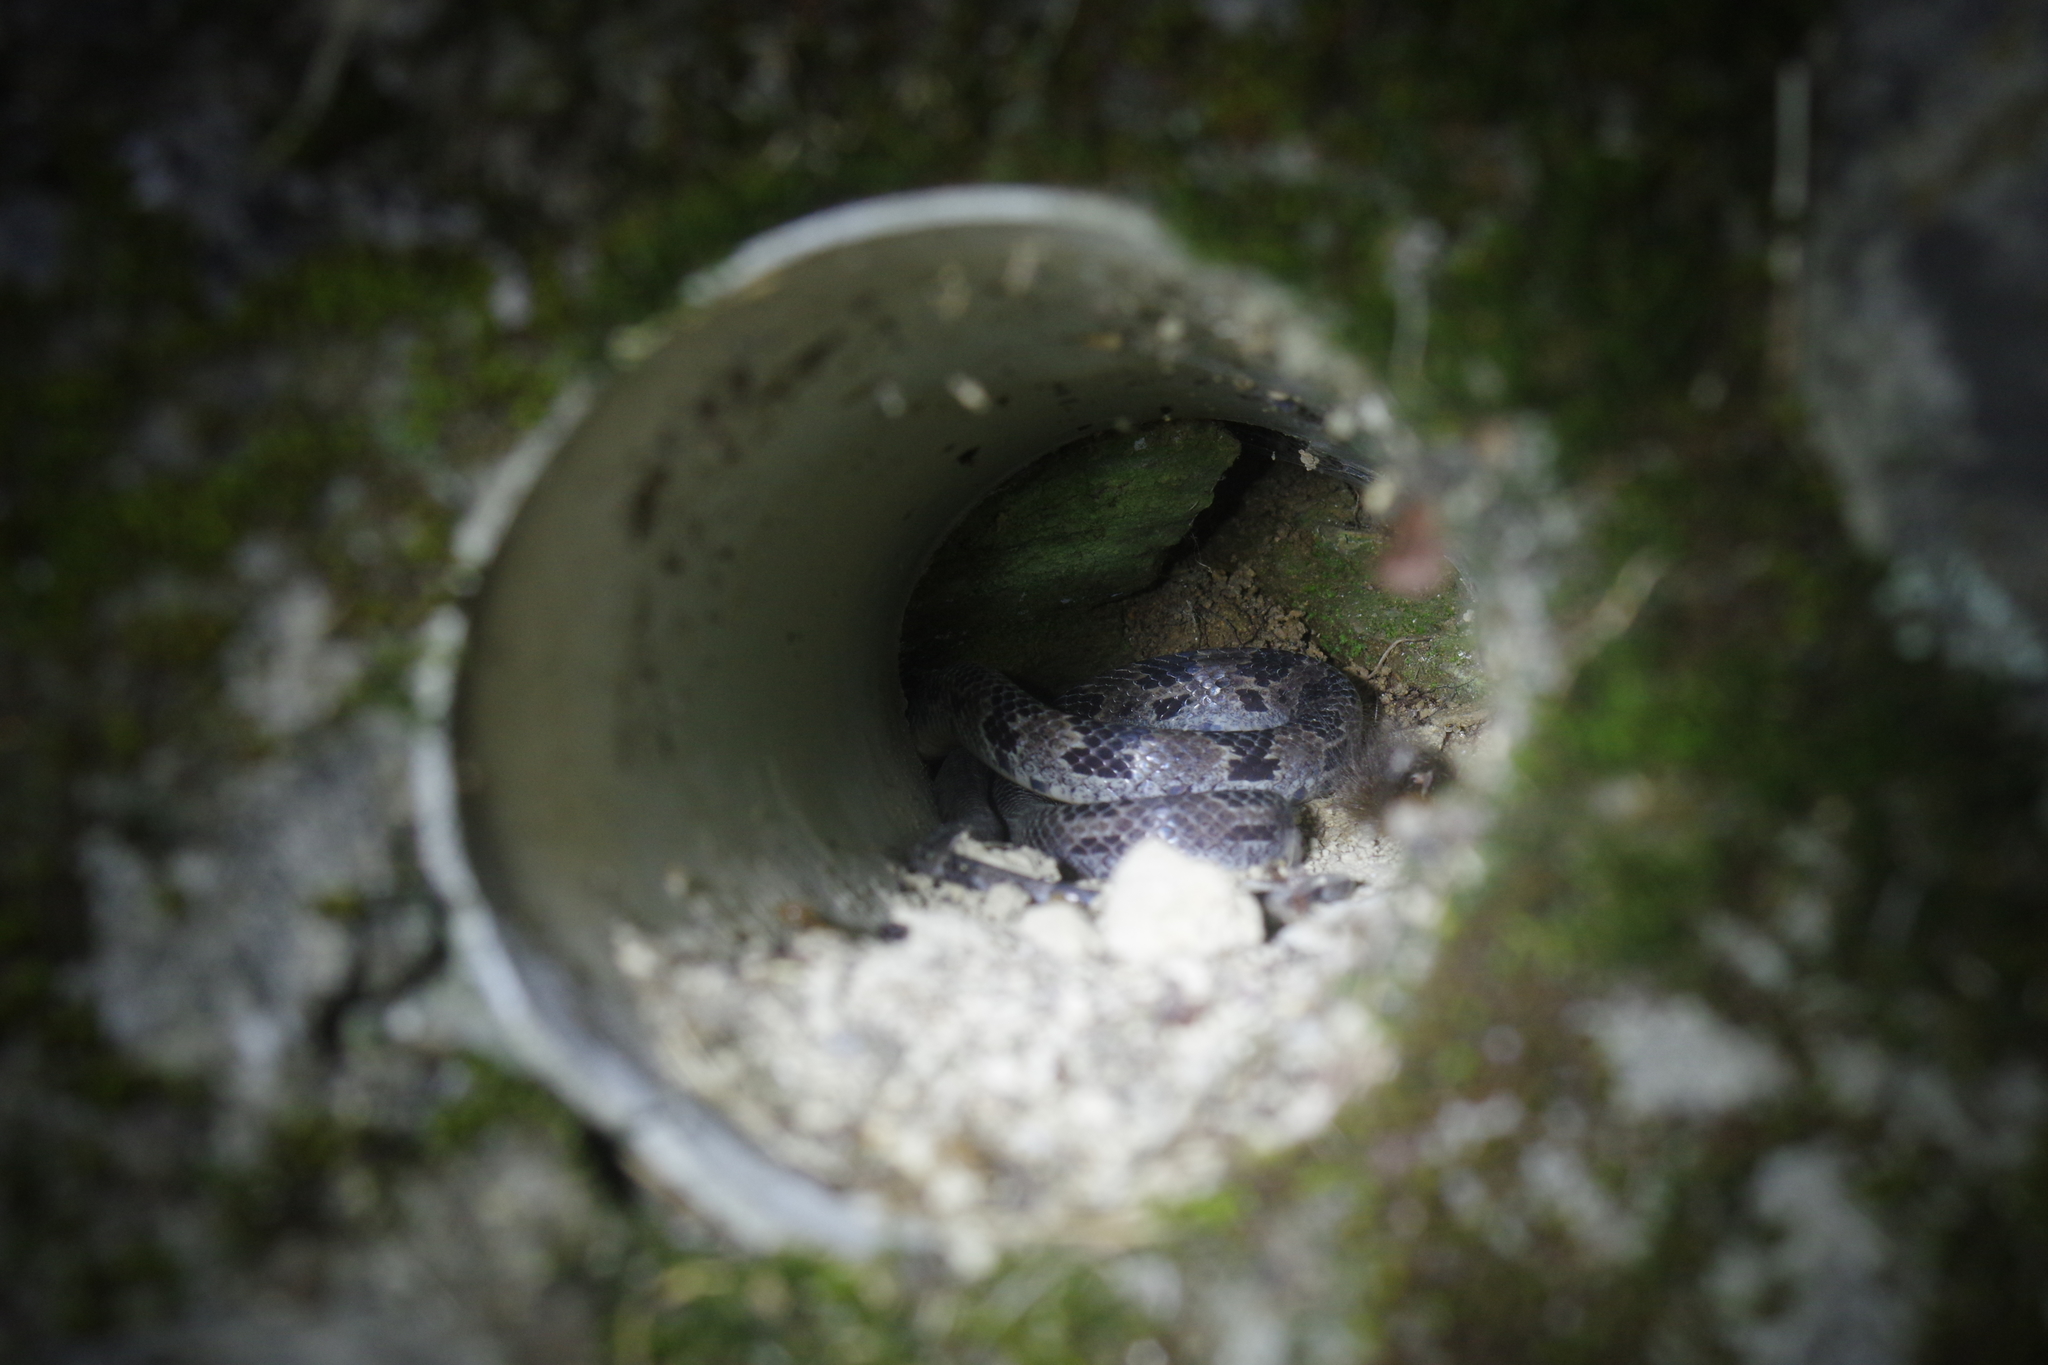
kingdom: Animalia
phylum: Chordata
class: Squamata
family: Colubridae
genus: Lycodon
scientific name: Lycodon ruhstrati
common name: Rushstrat's wolf snake
